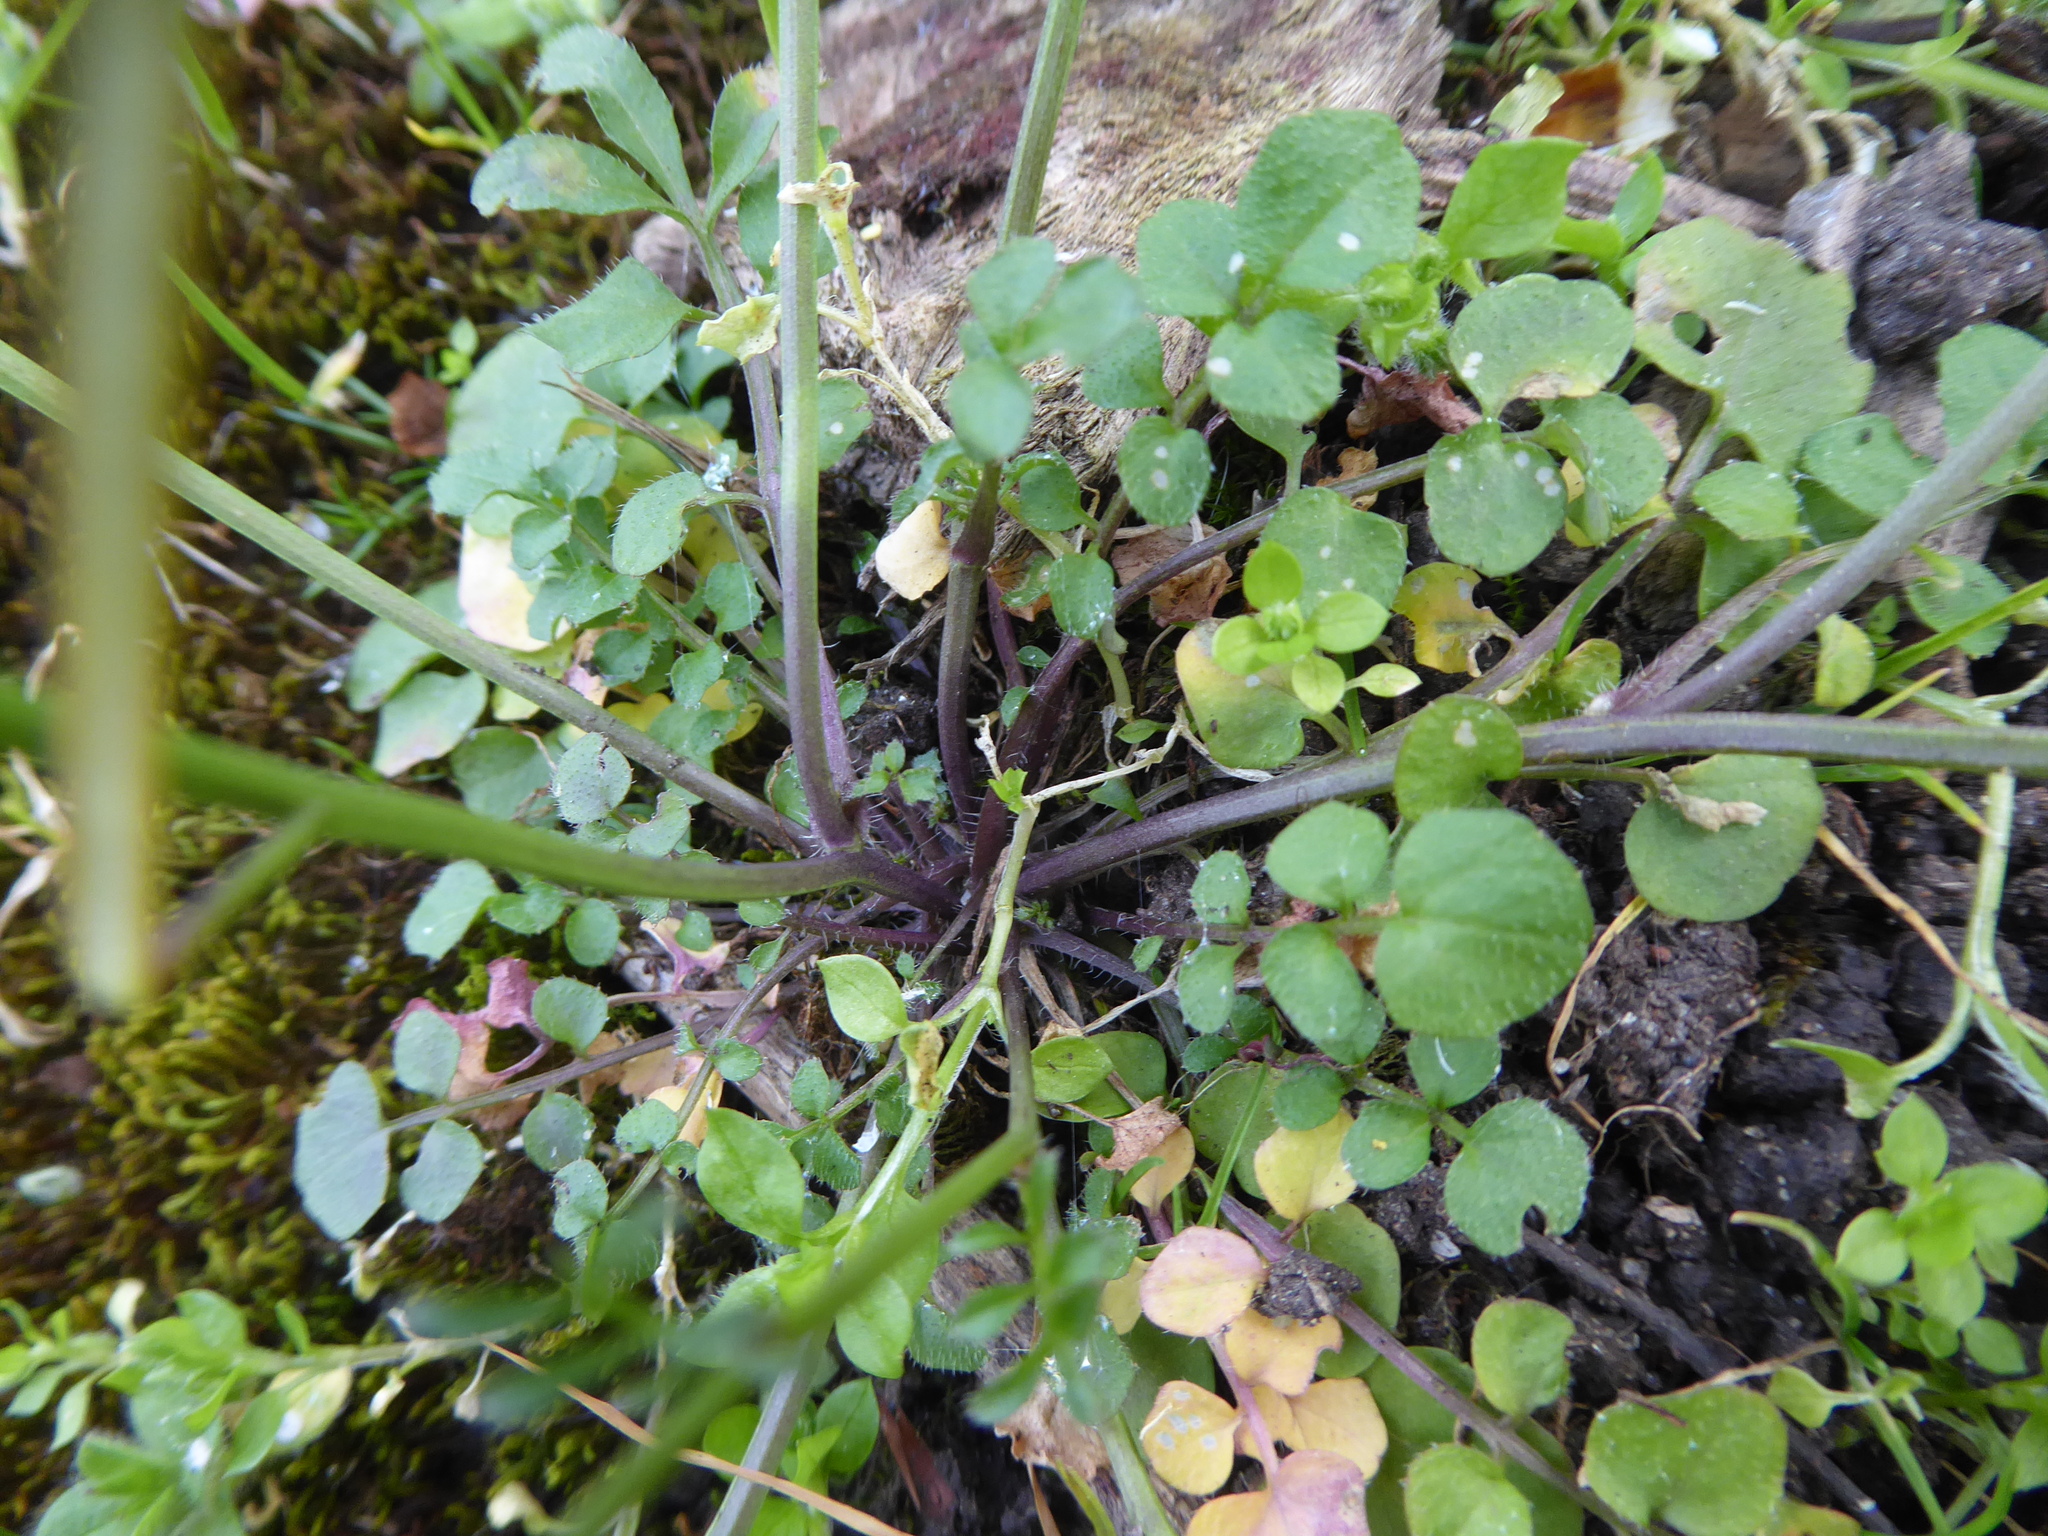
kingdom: Plantae
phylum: Tracheophyta
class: Magnoliopsida
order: Brassicales
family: Brassicaceae
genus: Cardamine
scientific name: Cardamine hirsuta
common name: Hairy bittercress
